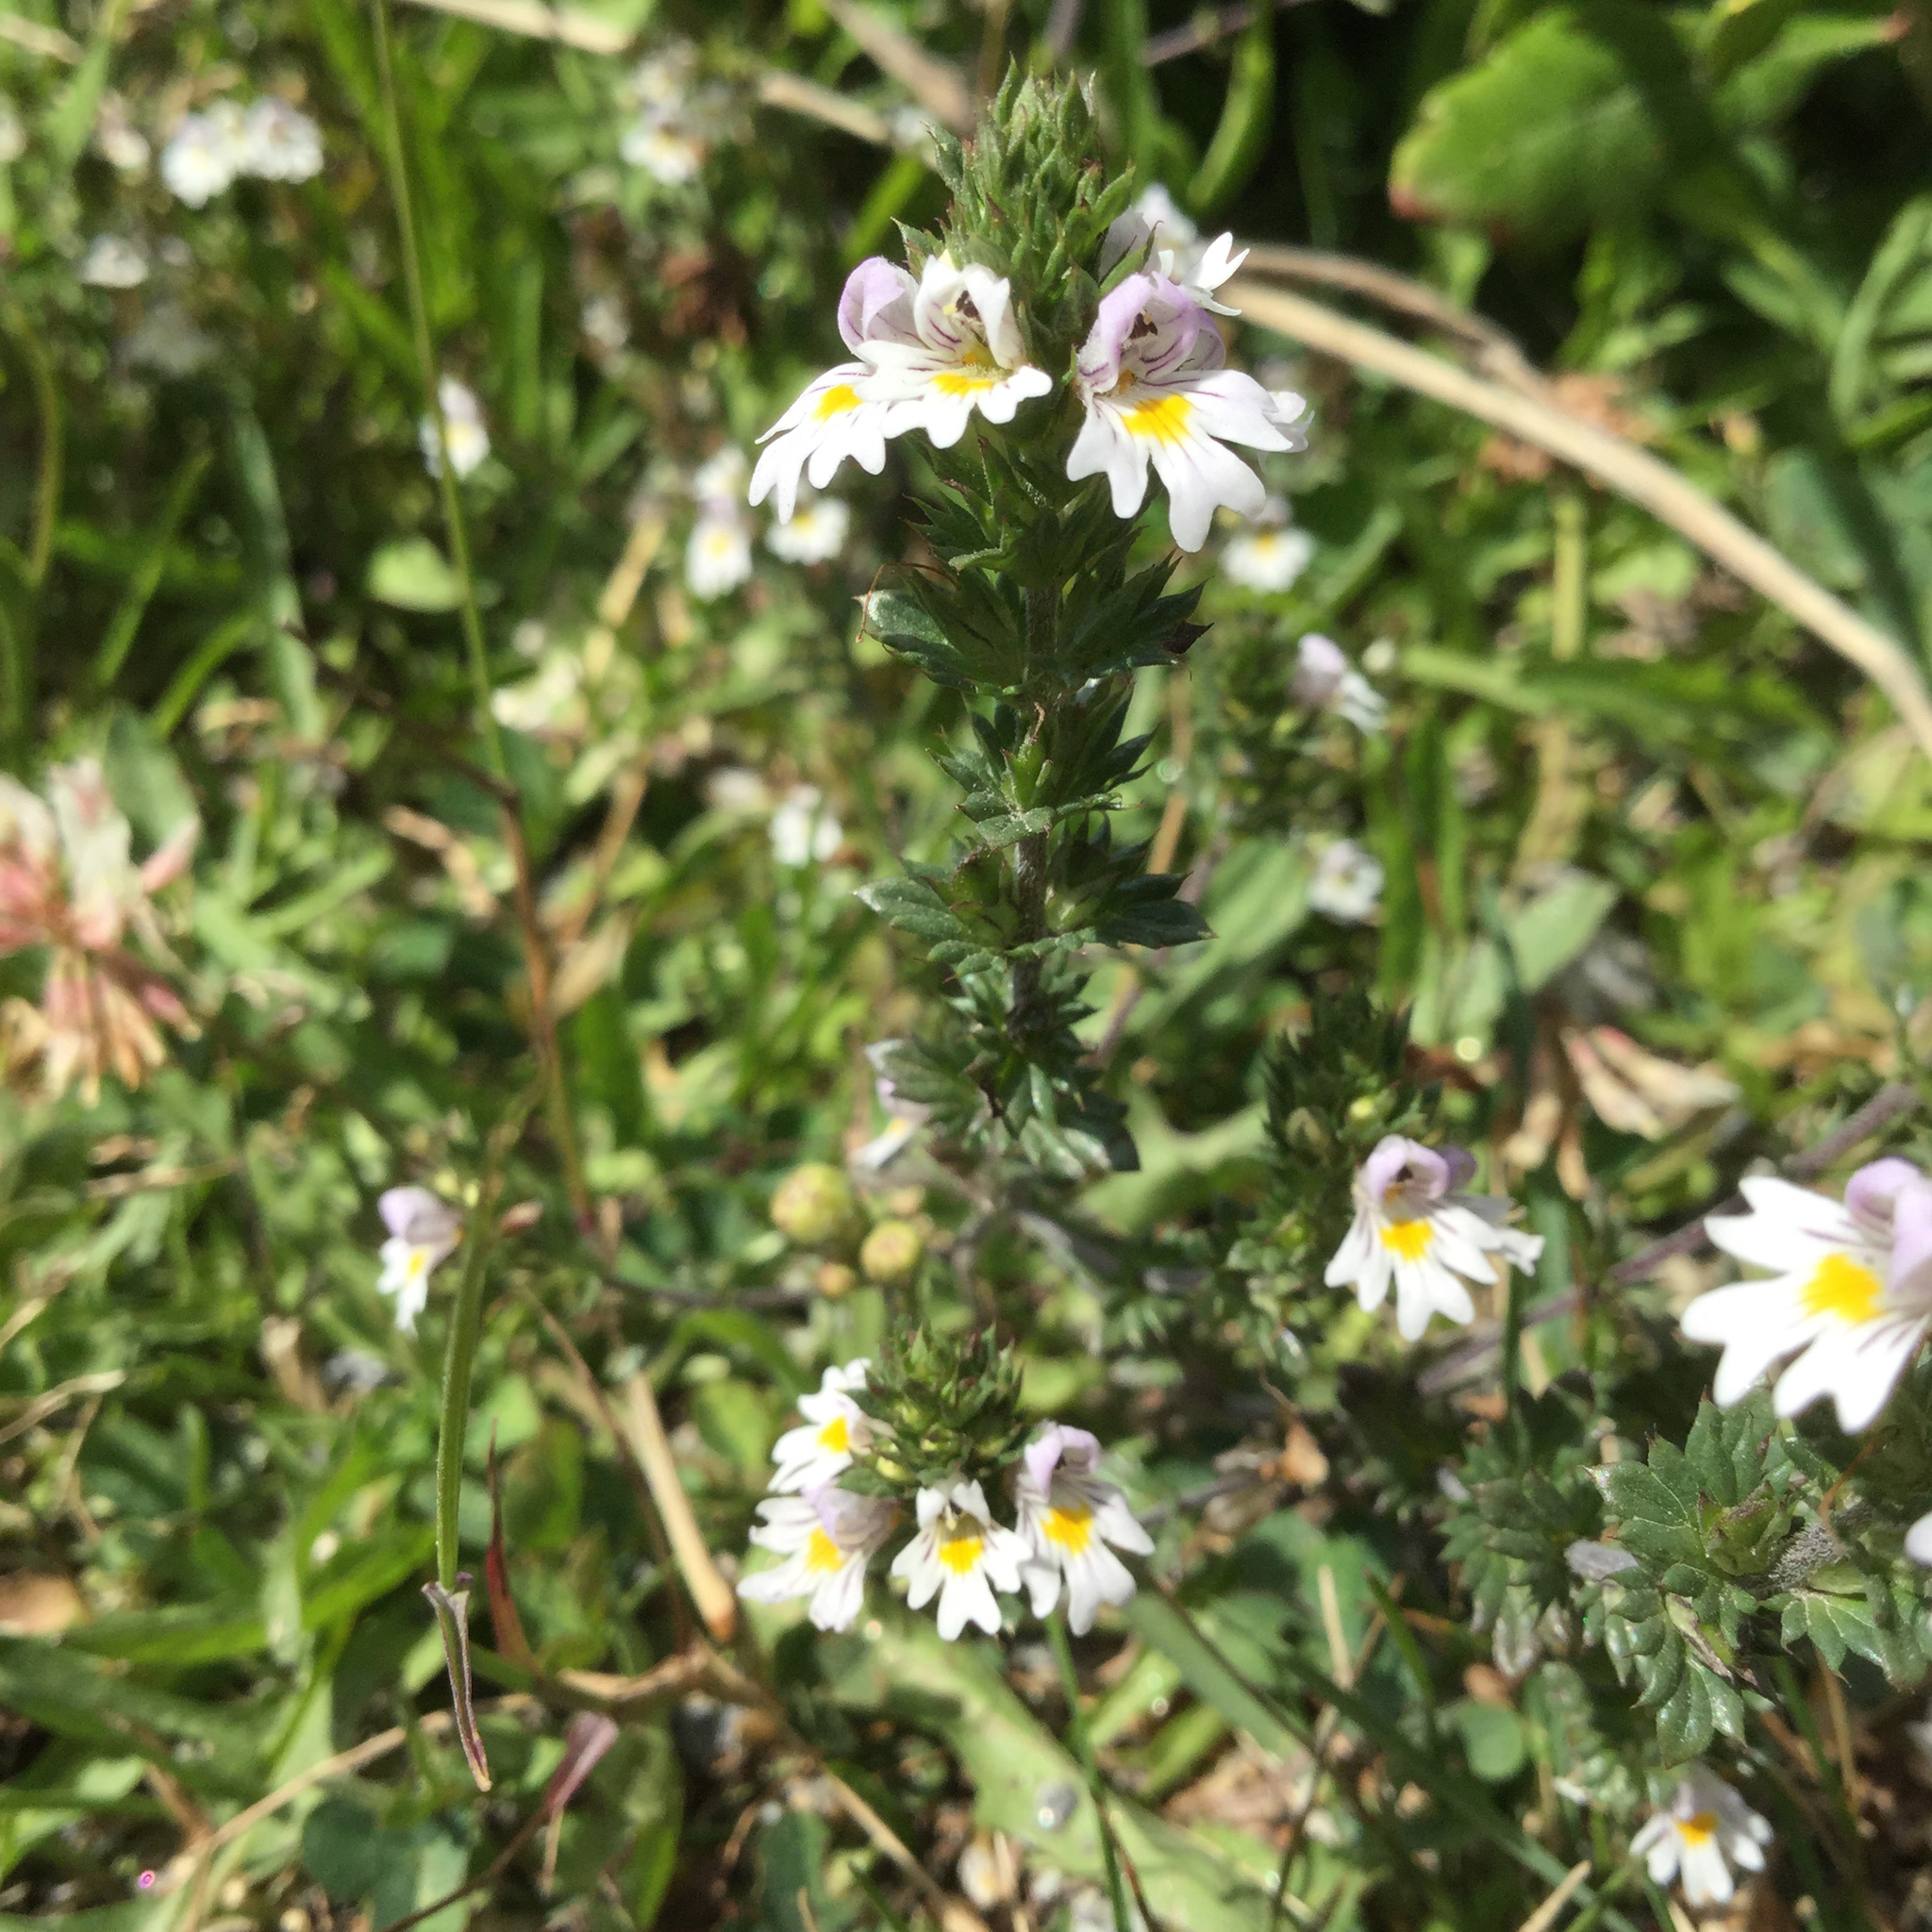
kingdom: Plantae
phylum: Tracheophyta
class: Magnoliopsida
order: Lamiales
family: Orobanchaceae
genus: Euphrasia
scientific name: Euphrasia nemorosa
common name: Common eyebright
